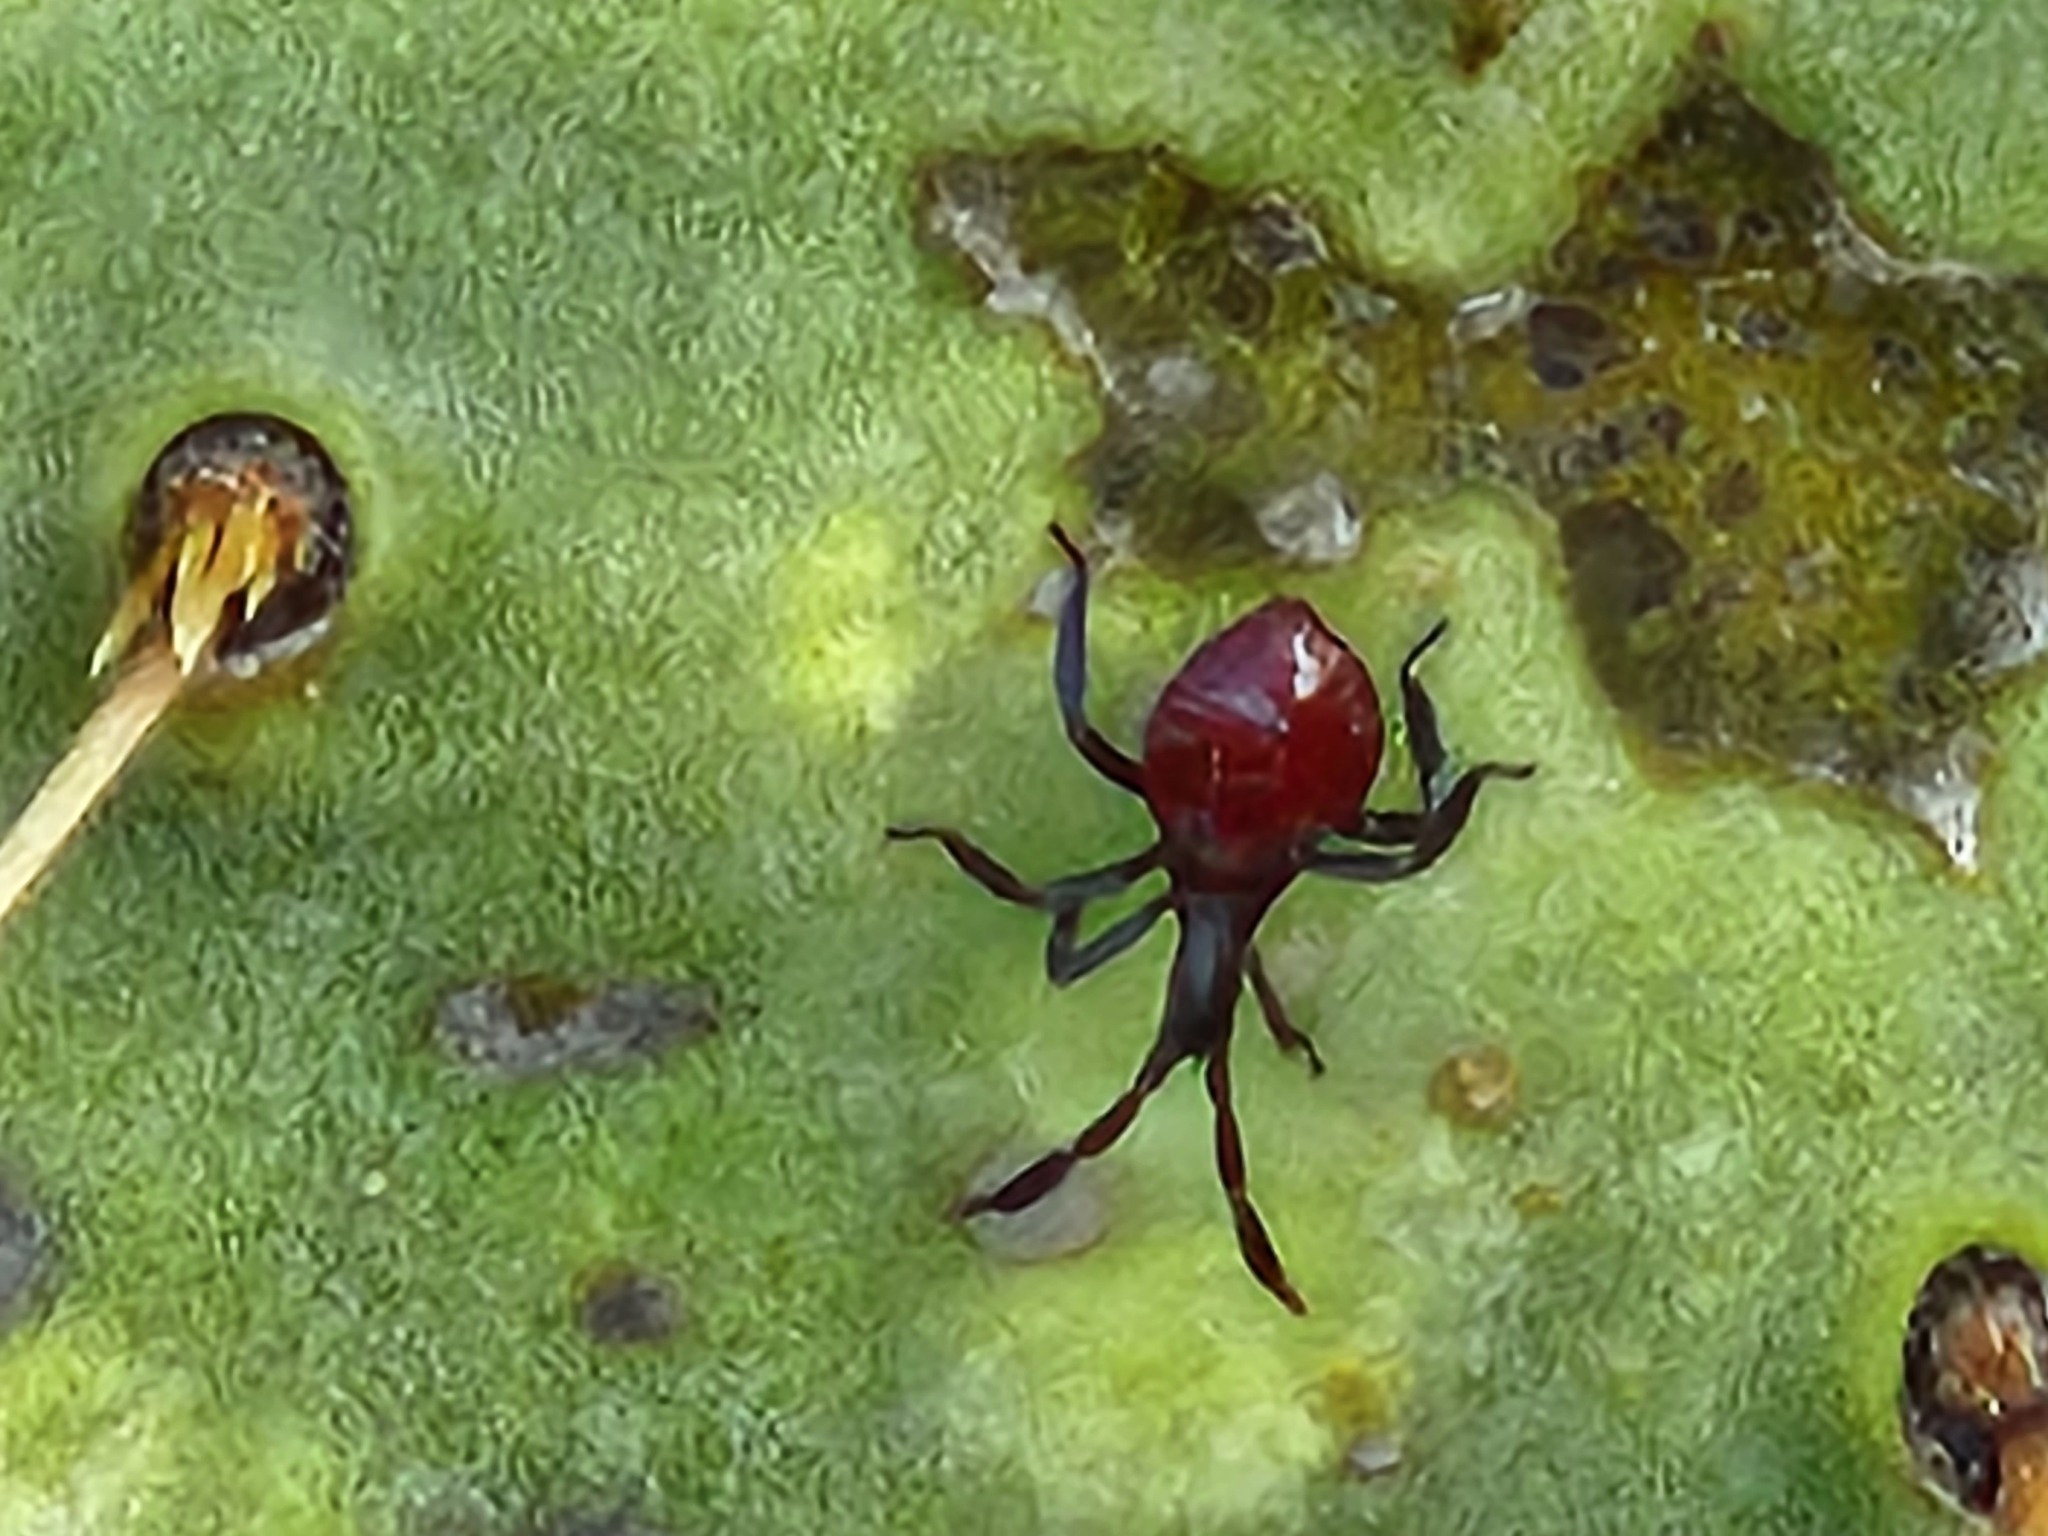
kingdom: Animalia
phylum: Arthropoda
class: Insecta
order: Hemiptera
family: Coreidae
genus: Chelinidea
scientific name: Chelinidea vittiger
